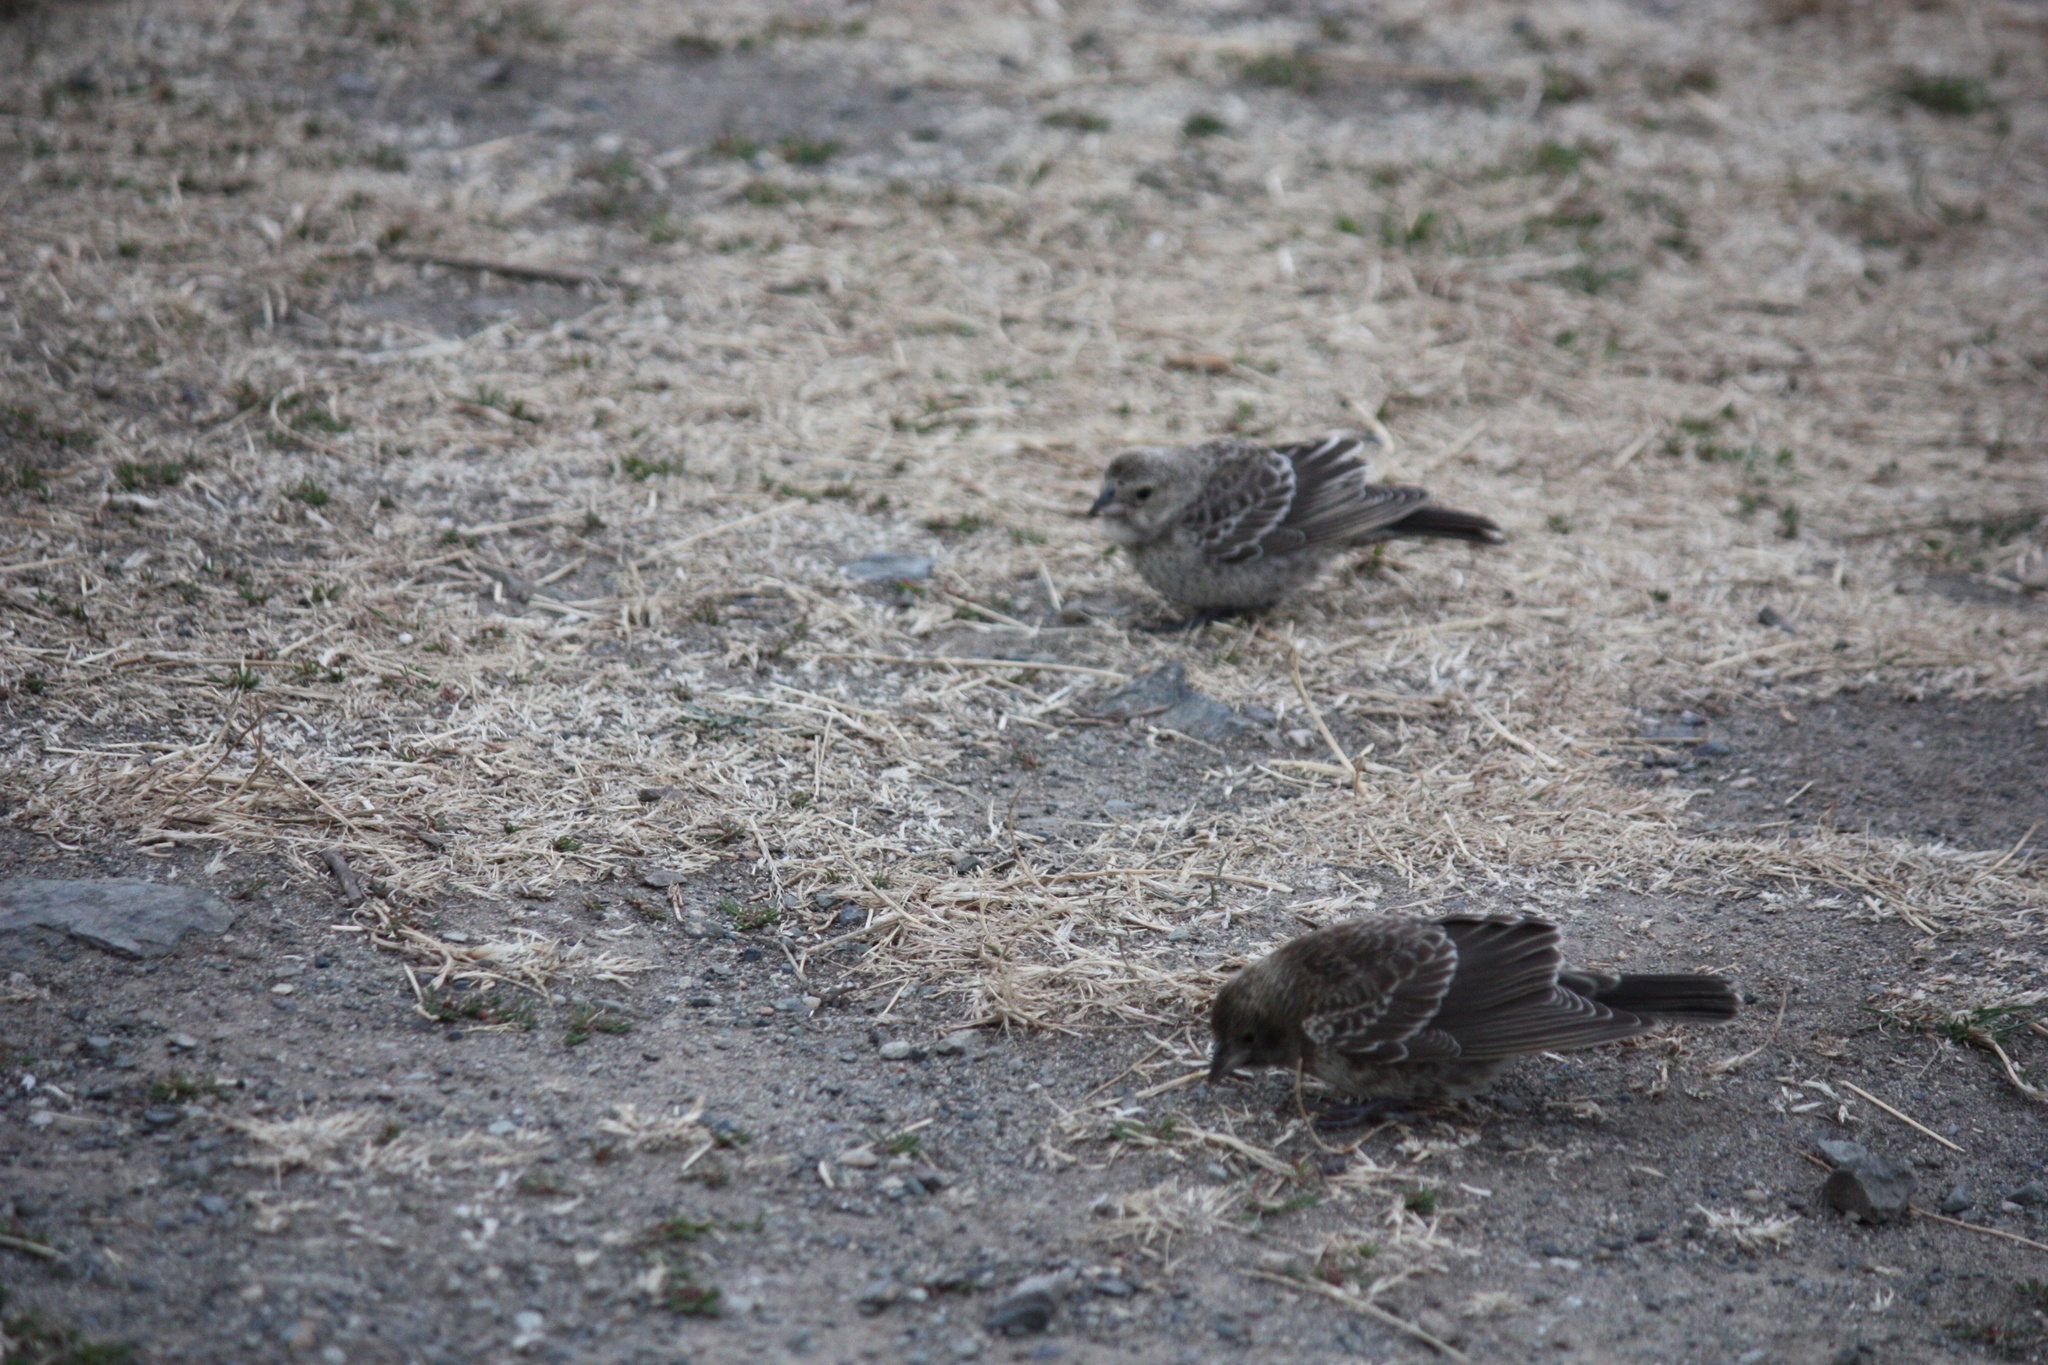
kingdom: Animalia
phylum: Chordata
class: Aves
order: Passeriformes
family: Icteridae
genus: Molothrus
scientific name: Molothrus ater
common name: Brown-headed cowbird
